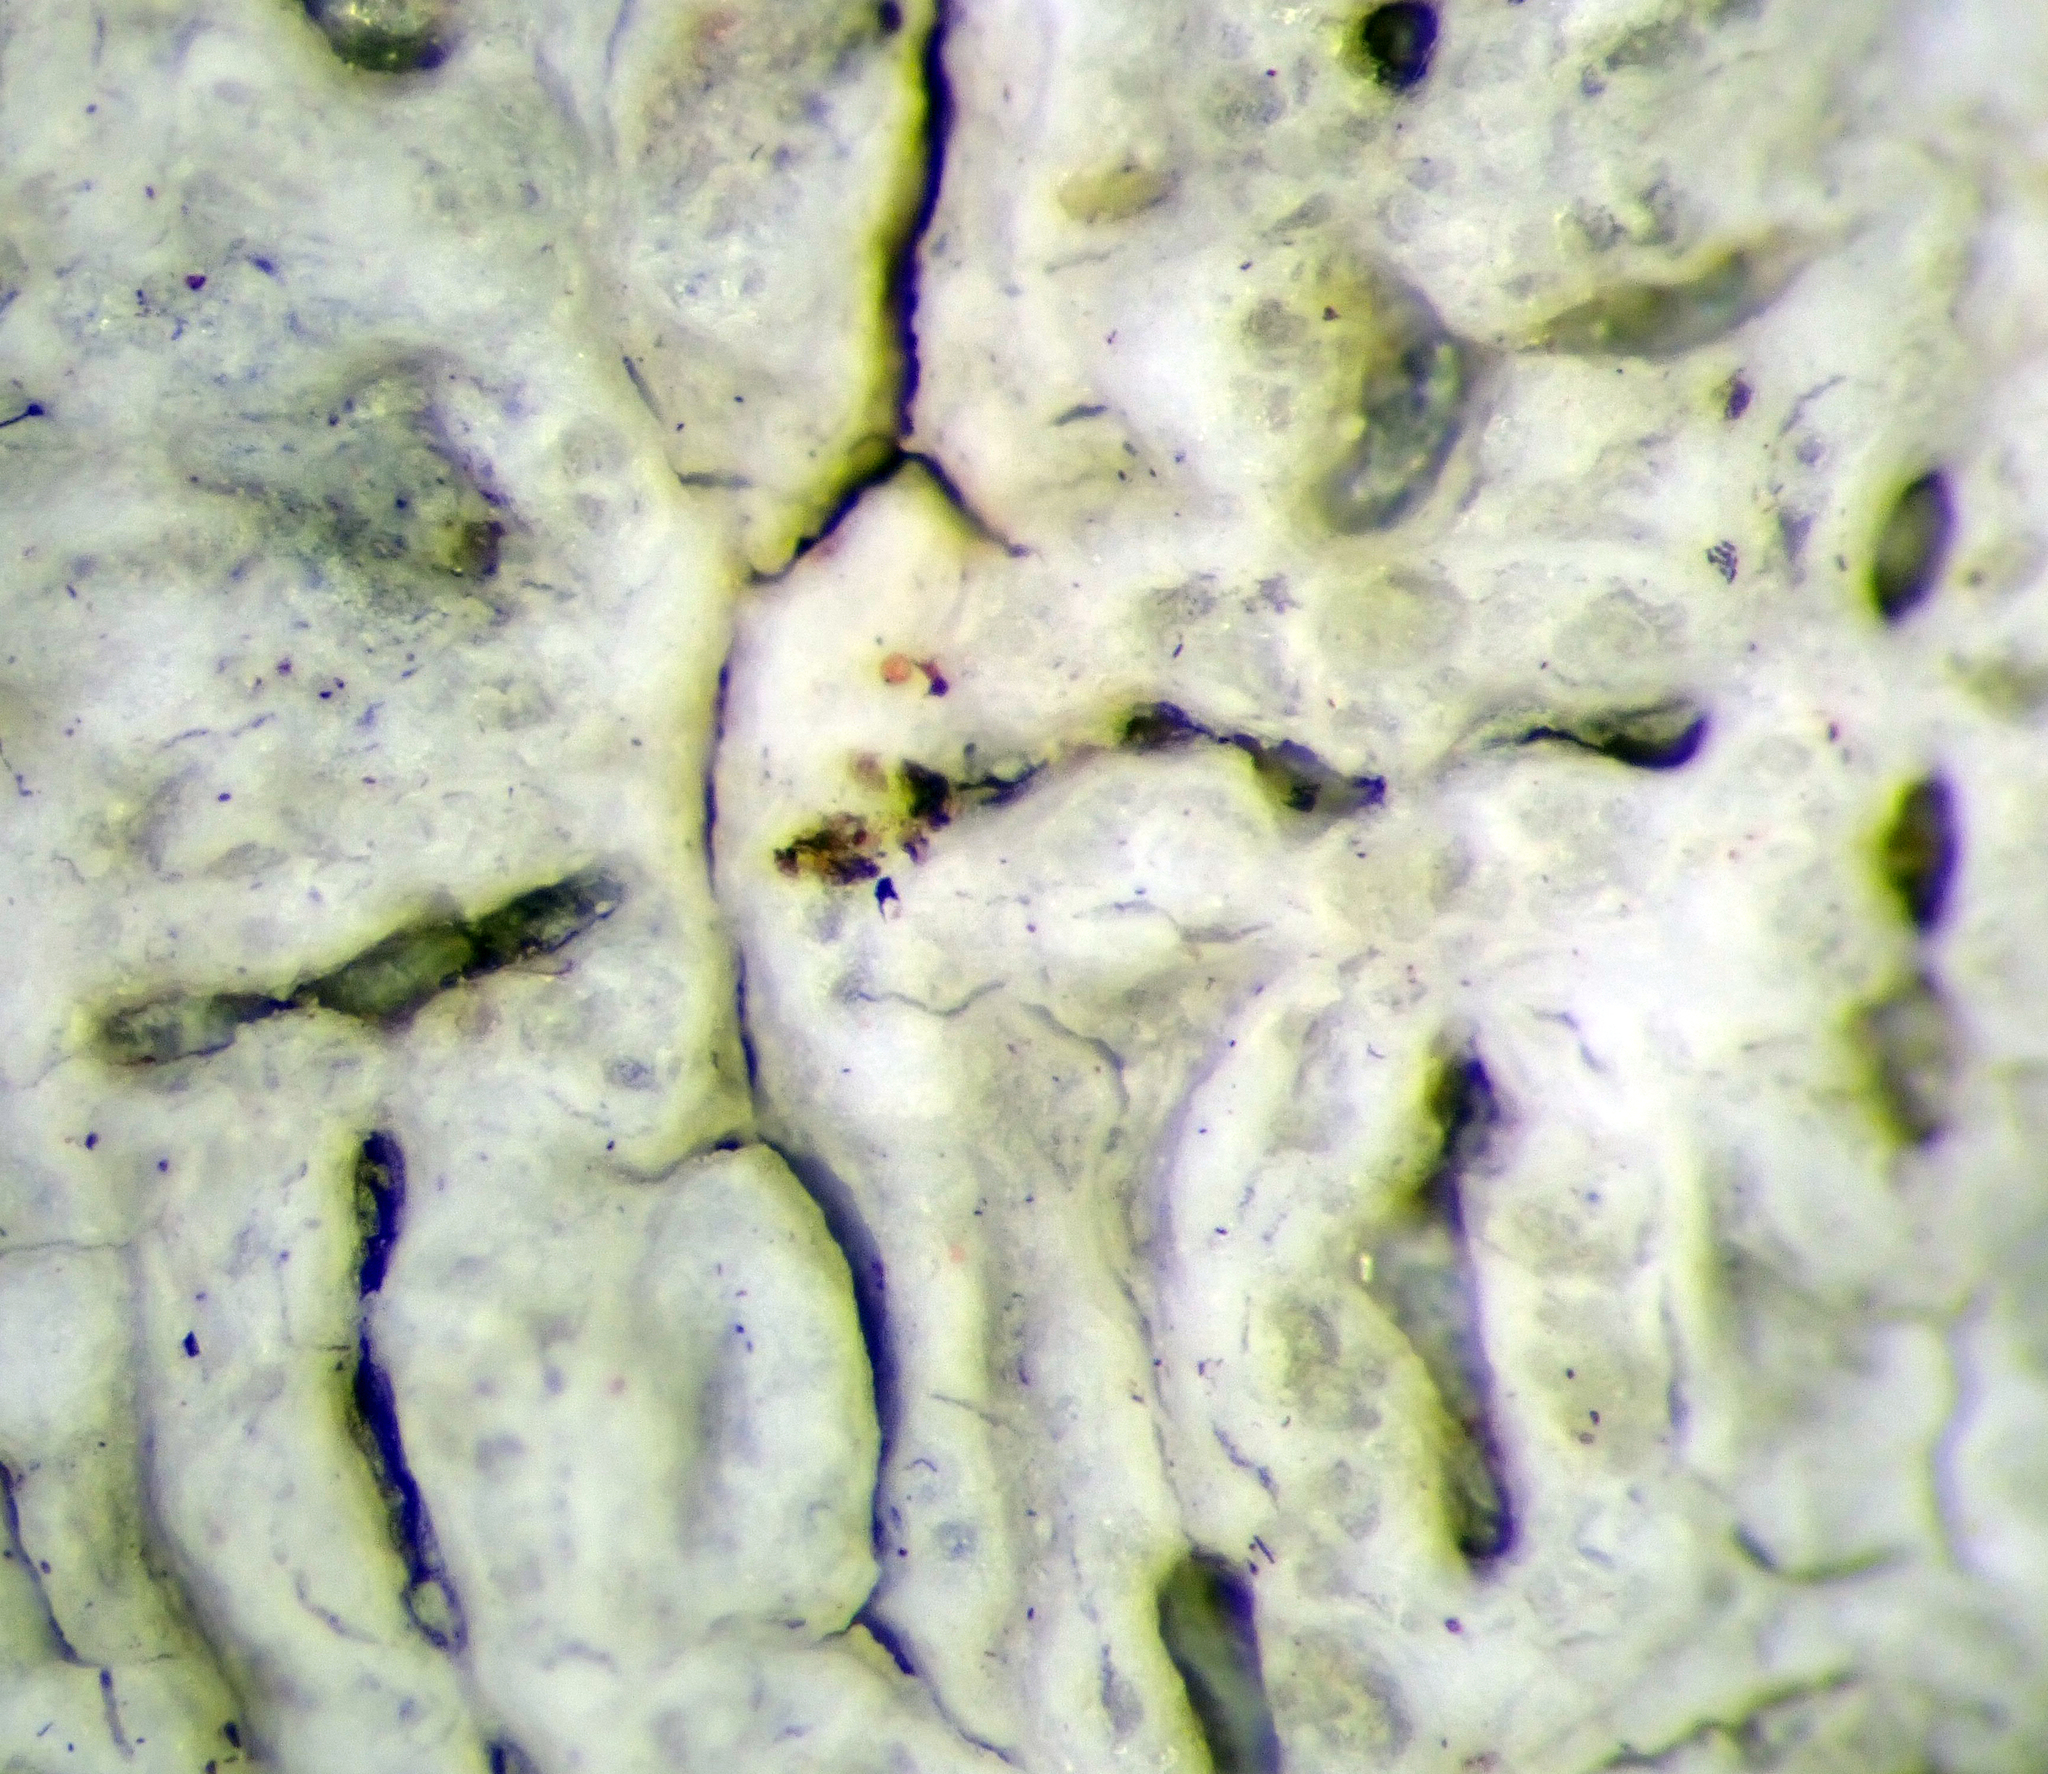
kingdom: Fungi
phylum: Ascomycota
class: Lecanoromycetes
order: Ostropales
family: Graphidaceae
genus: Fissurina
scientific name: Fissurina
